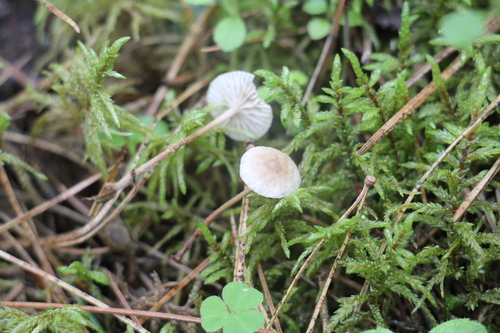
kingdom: Fungi
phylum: Basidiomycota
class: Agaricomycetes
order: Agaricales
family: Omphalotaceae
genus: Paragymnopus
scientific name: Paragymnopus perforans
